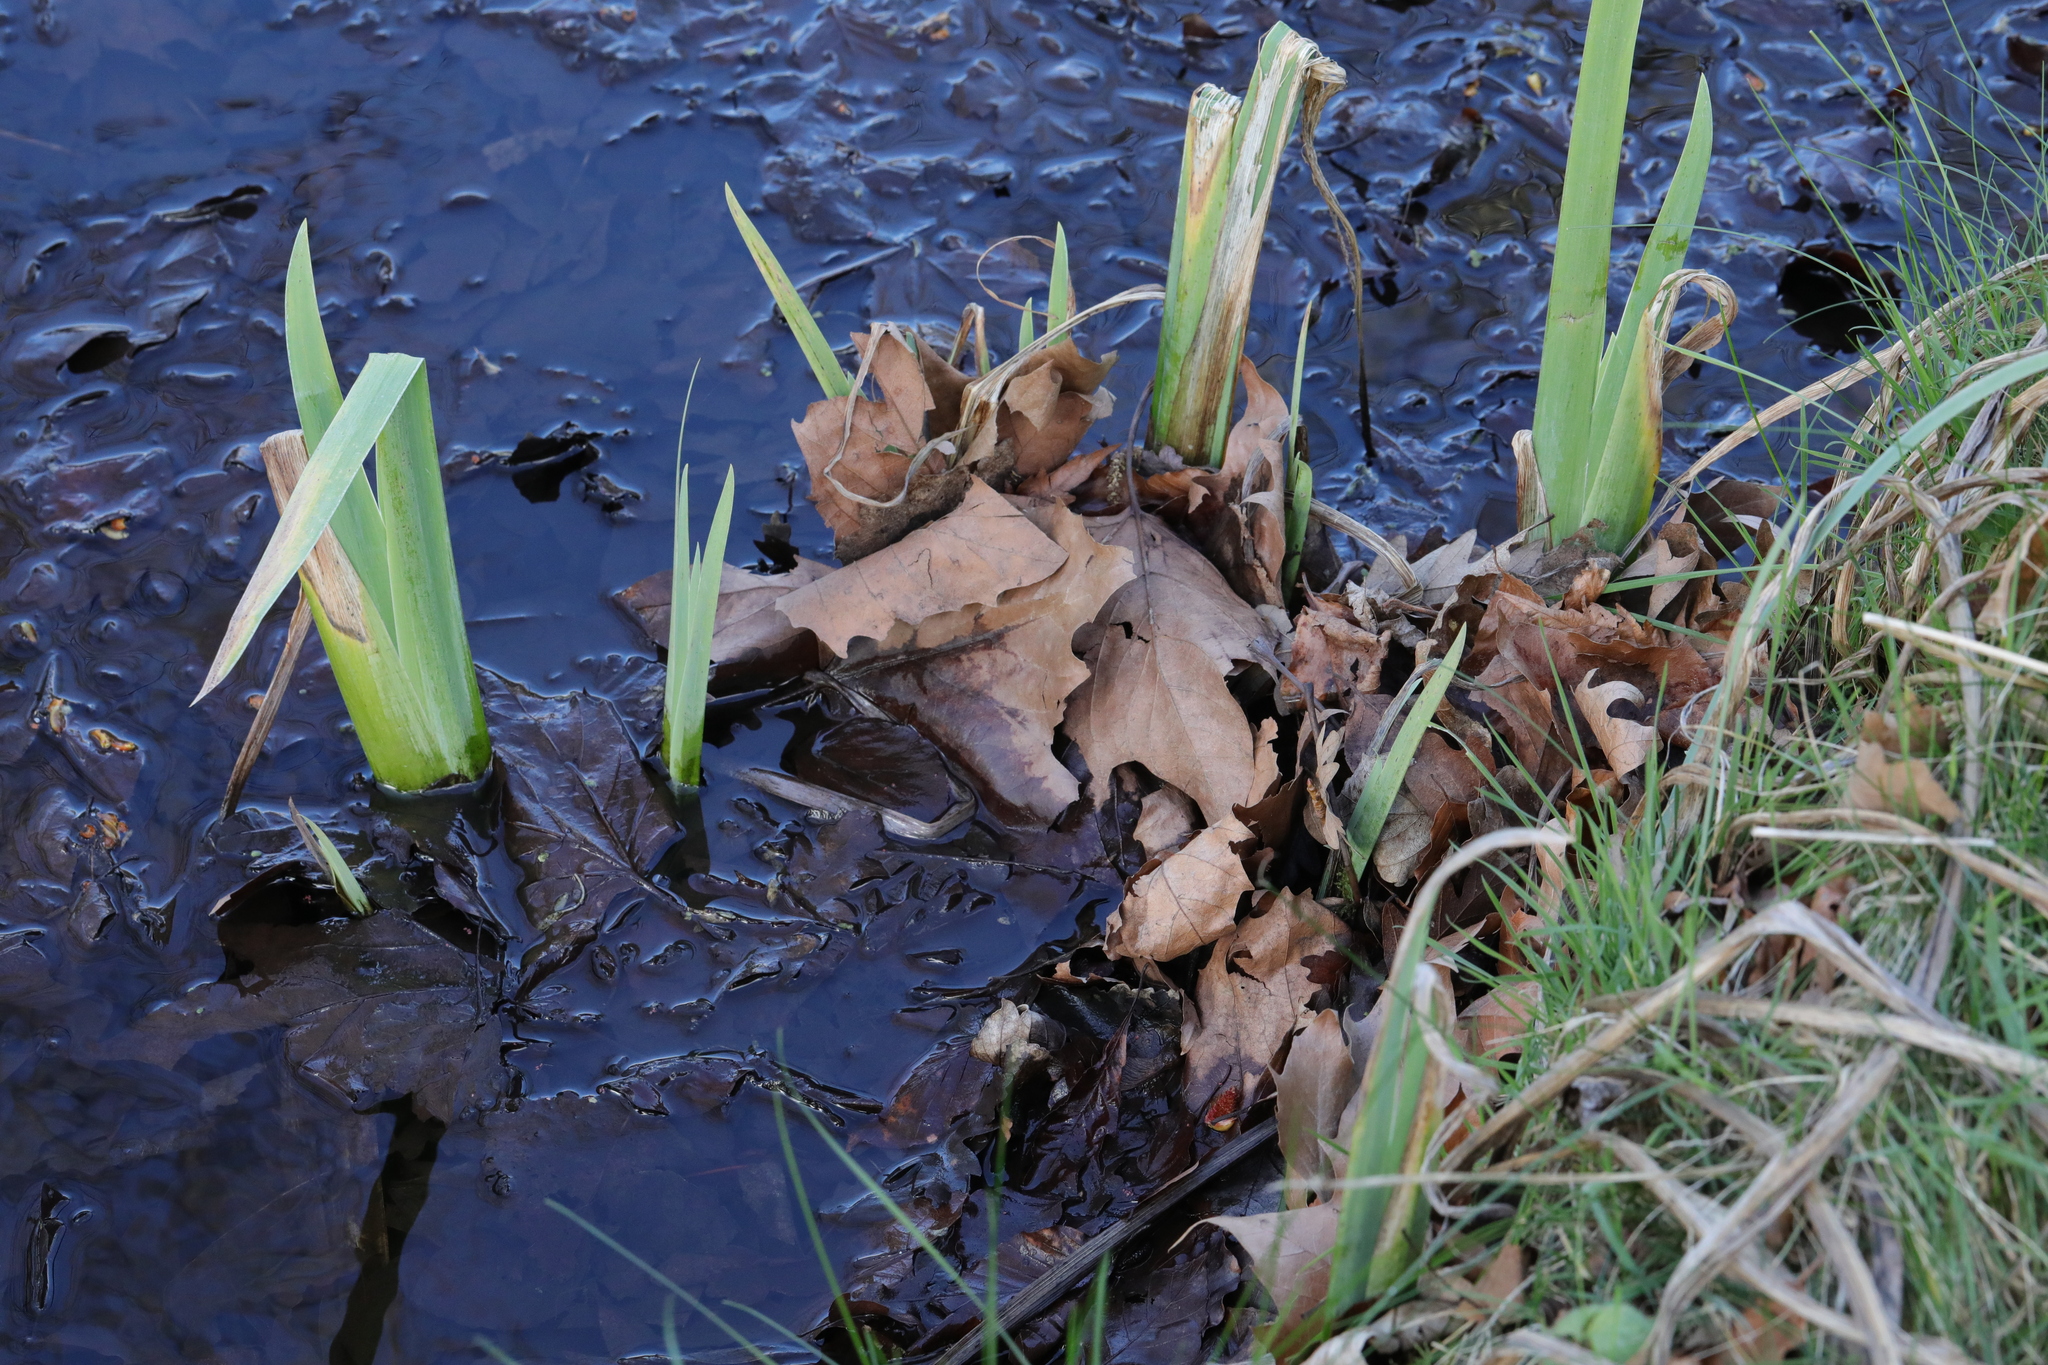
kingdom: Plantae
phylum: Tracheophyta
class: Liliopsida
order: Asparagales
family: Iridaceae
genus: Iris
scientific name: Iris pseudacorus
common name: Yellow flag
